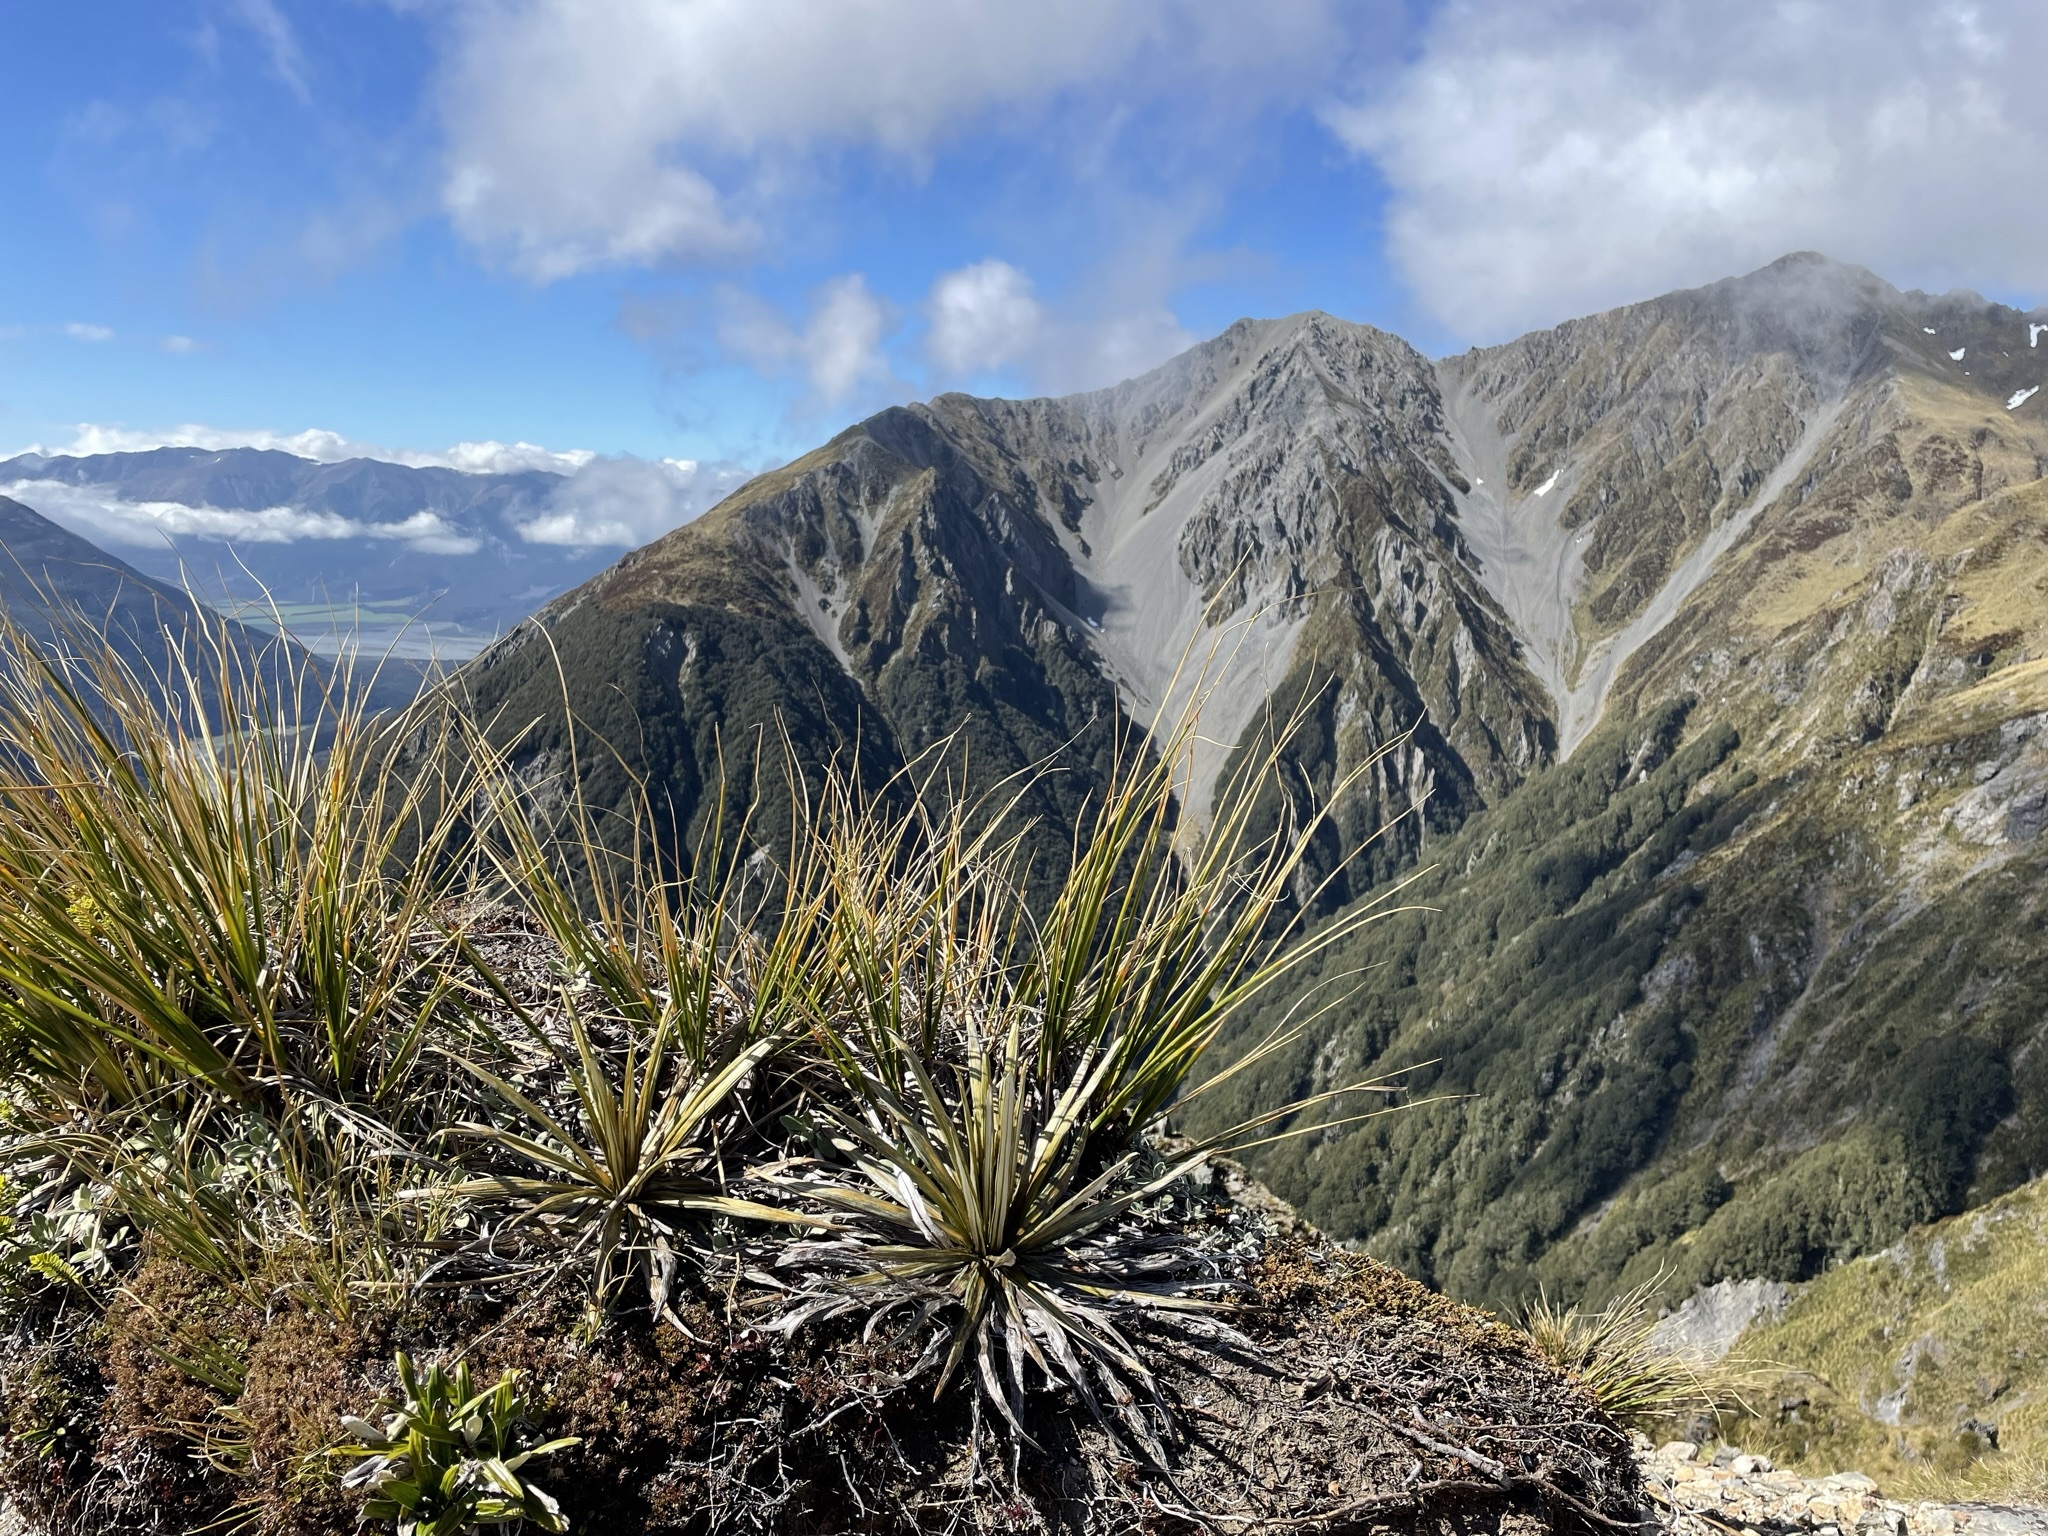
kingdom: Plantae
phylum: Tracheophyta
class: Magnoliopsida
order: Asterales
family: Asteraceae
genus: Celmisia
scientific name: Celmisia armstrongii
